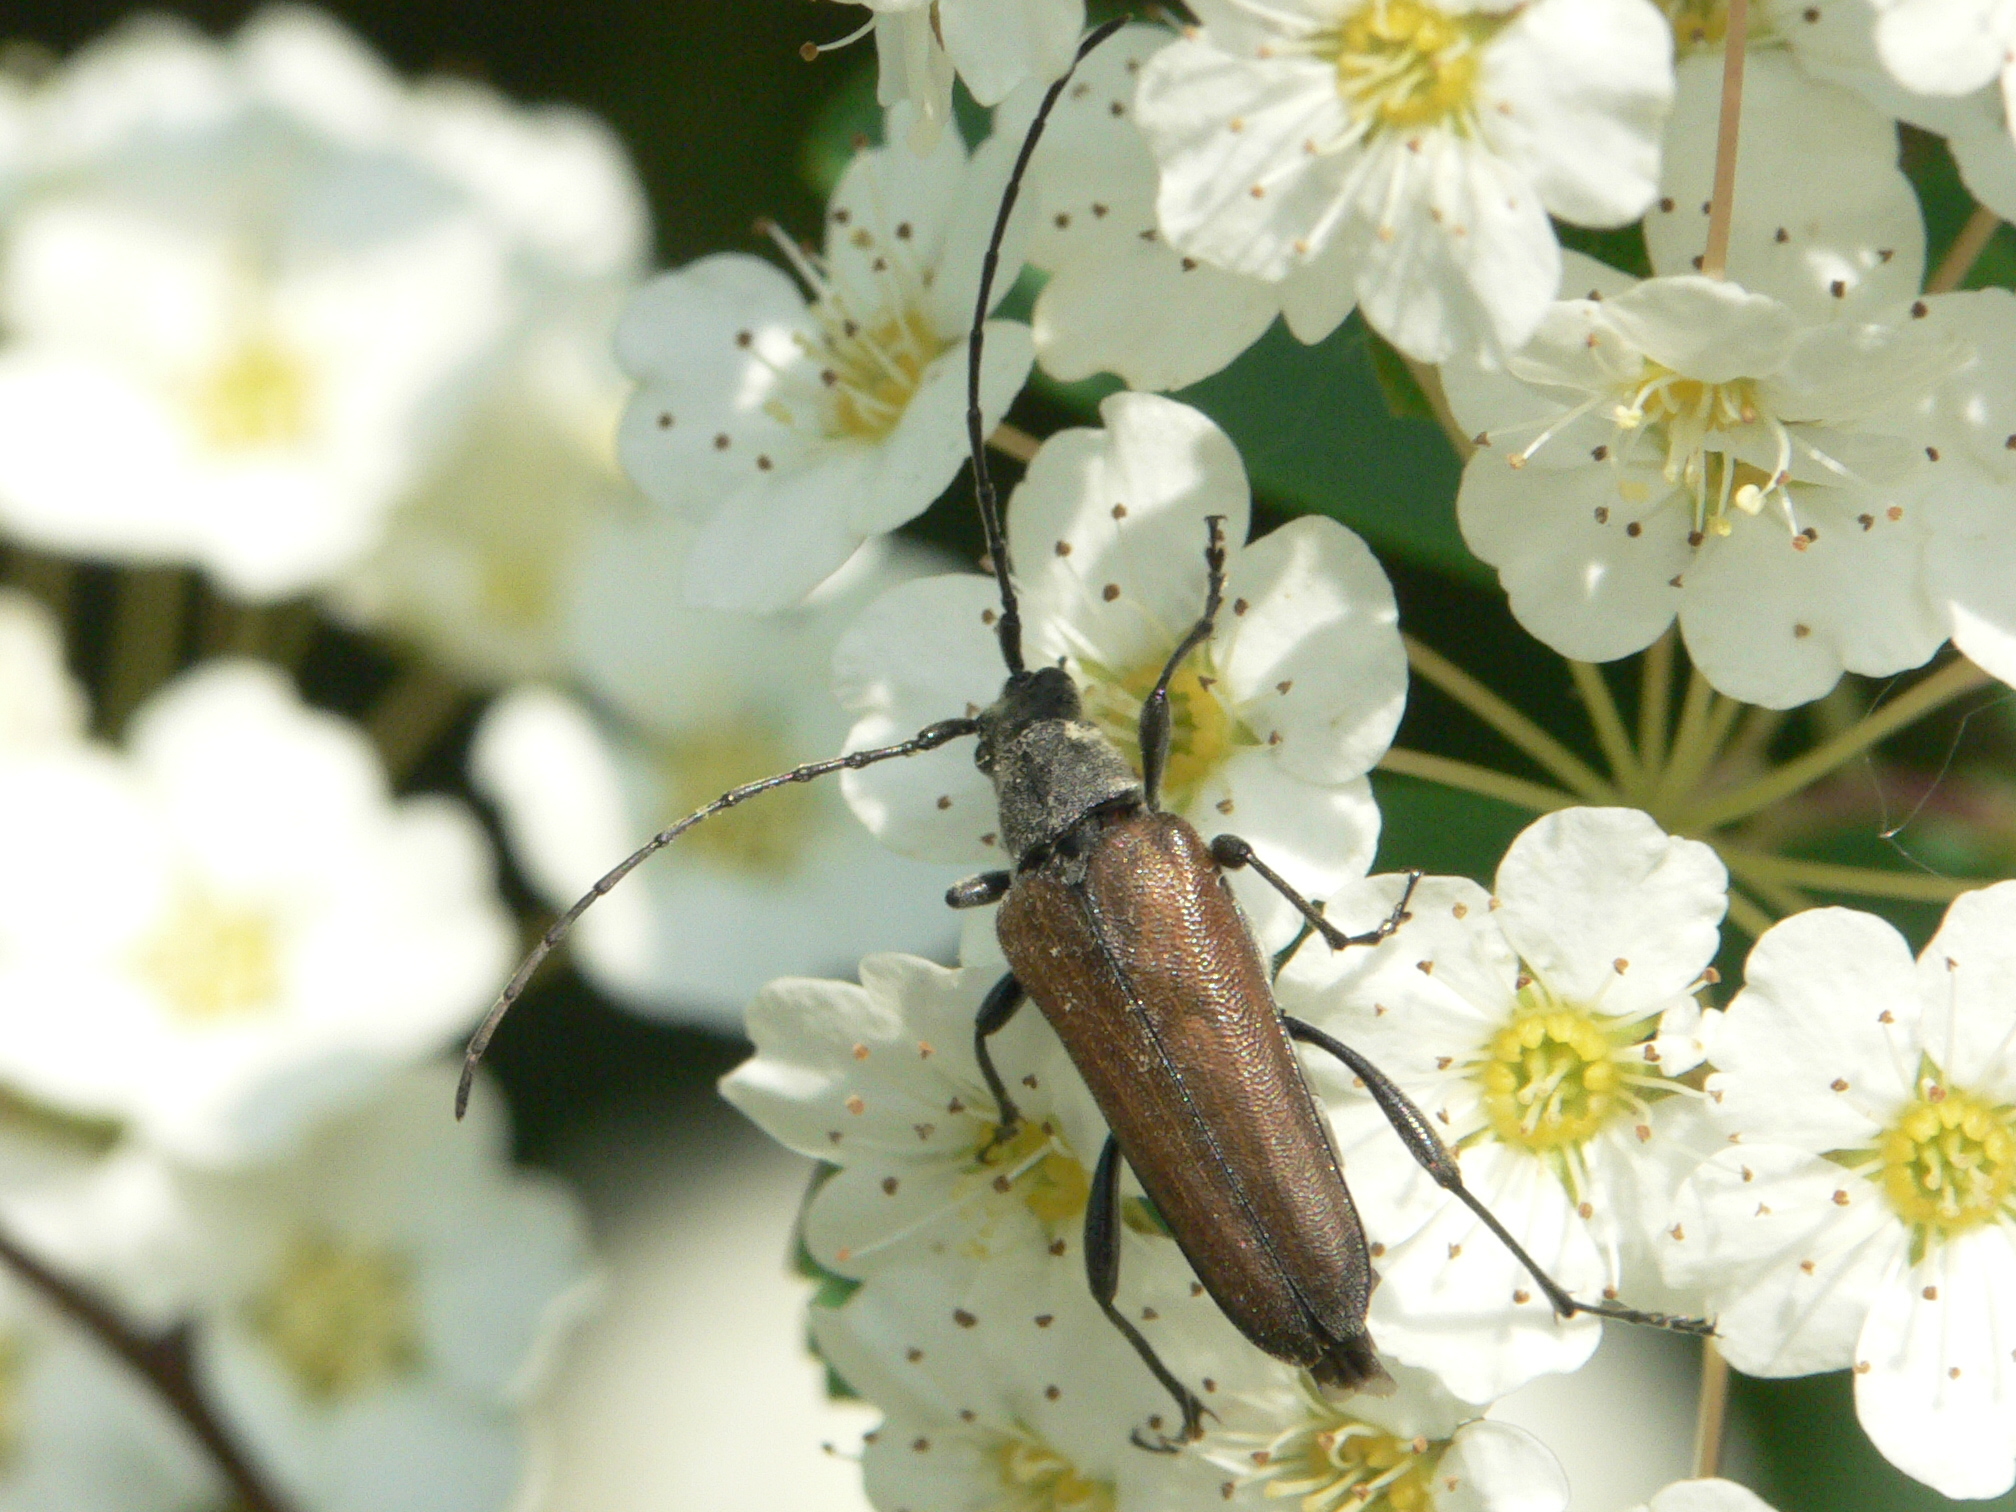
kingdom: Animalia
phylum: Arthropoda
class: Insecta
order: Coleoptera
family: Cerambycidae
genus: Trachysida
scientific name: Trachysida mutabilis
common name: Changeable flower longhorn
